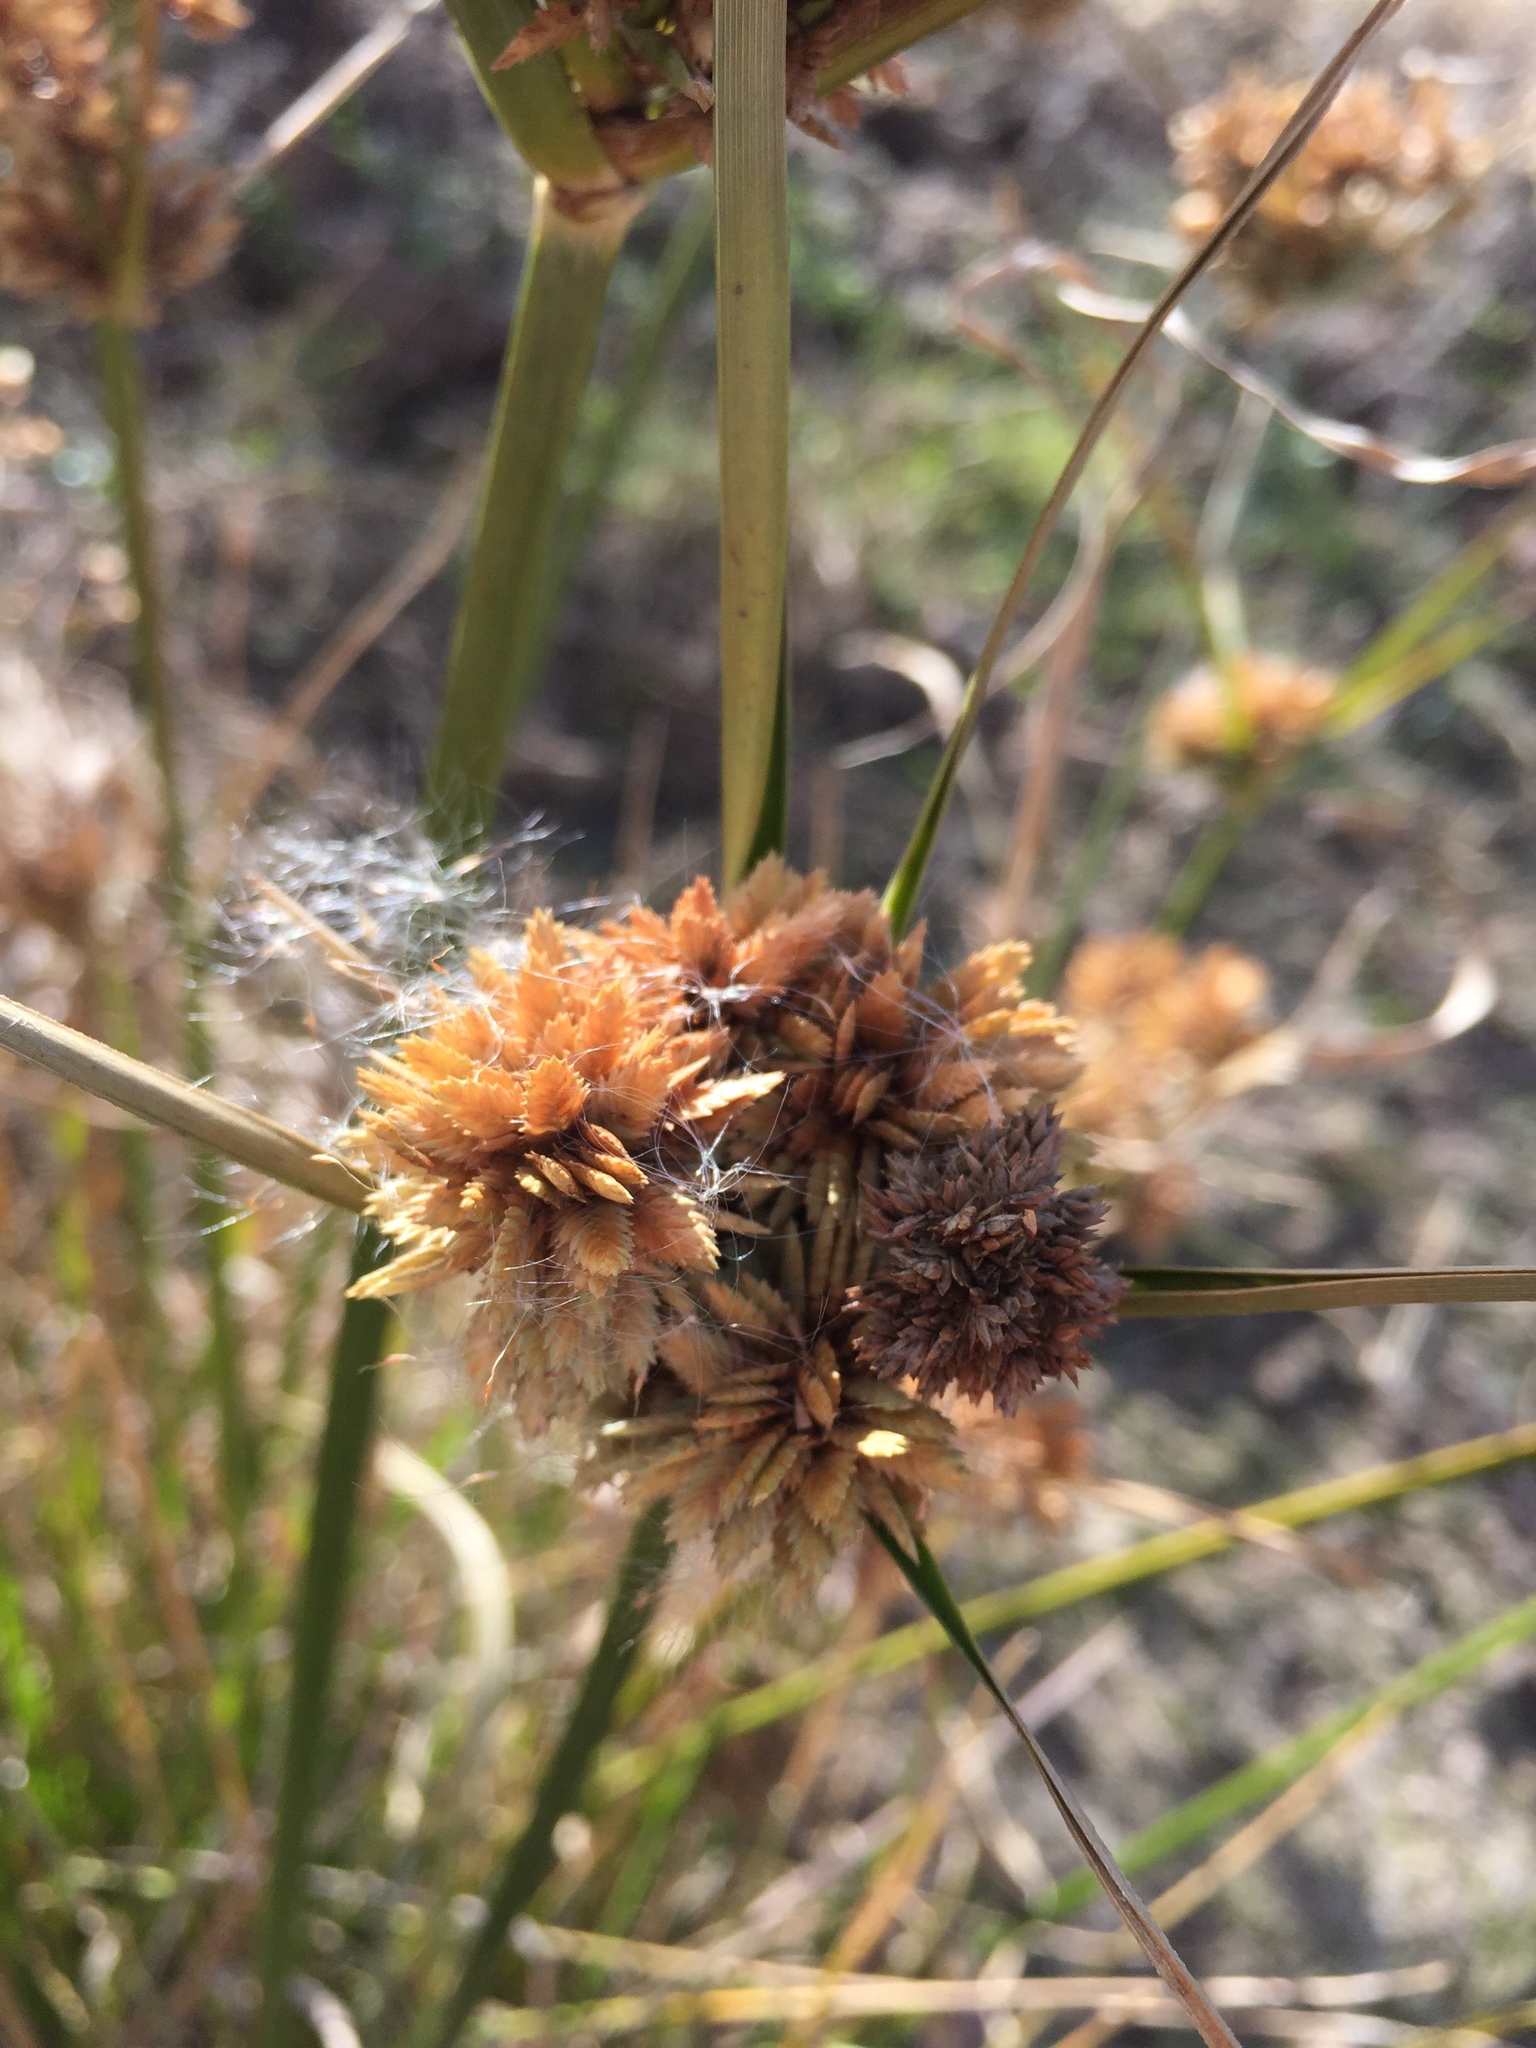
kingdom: Plantae
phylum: Tracheophyta
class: Liliopsida
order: Poales
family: Cyperaceae
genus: Cyperus
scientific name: Cyperus eragrostis
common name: Tall flatsedge
